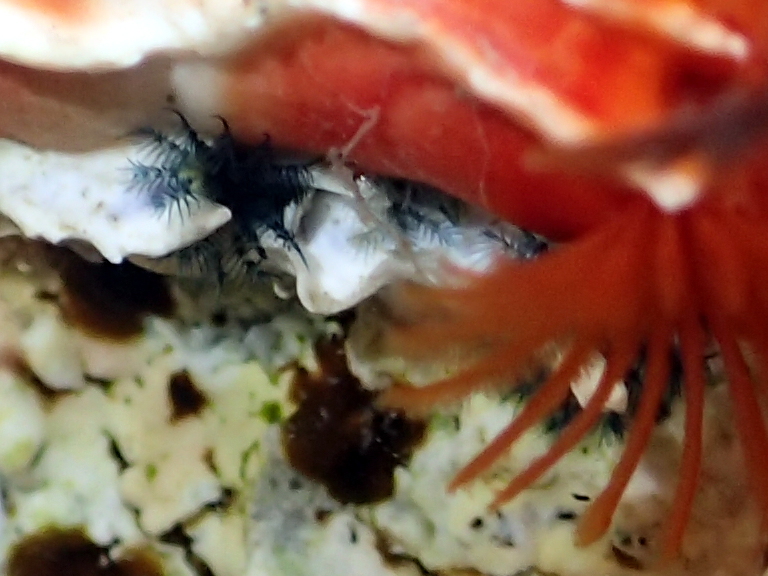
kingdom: Animalia
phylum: Annelida
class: Polychaeta
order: Sabellida
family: Serpulidae
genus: Galeolaria
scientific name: Galeolaria hystrix
